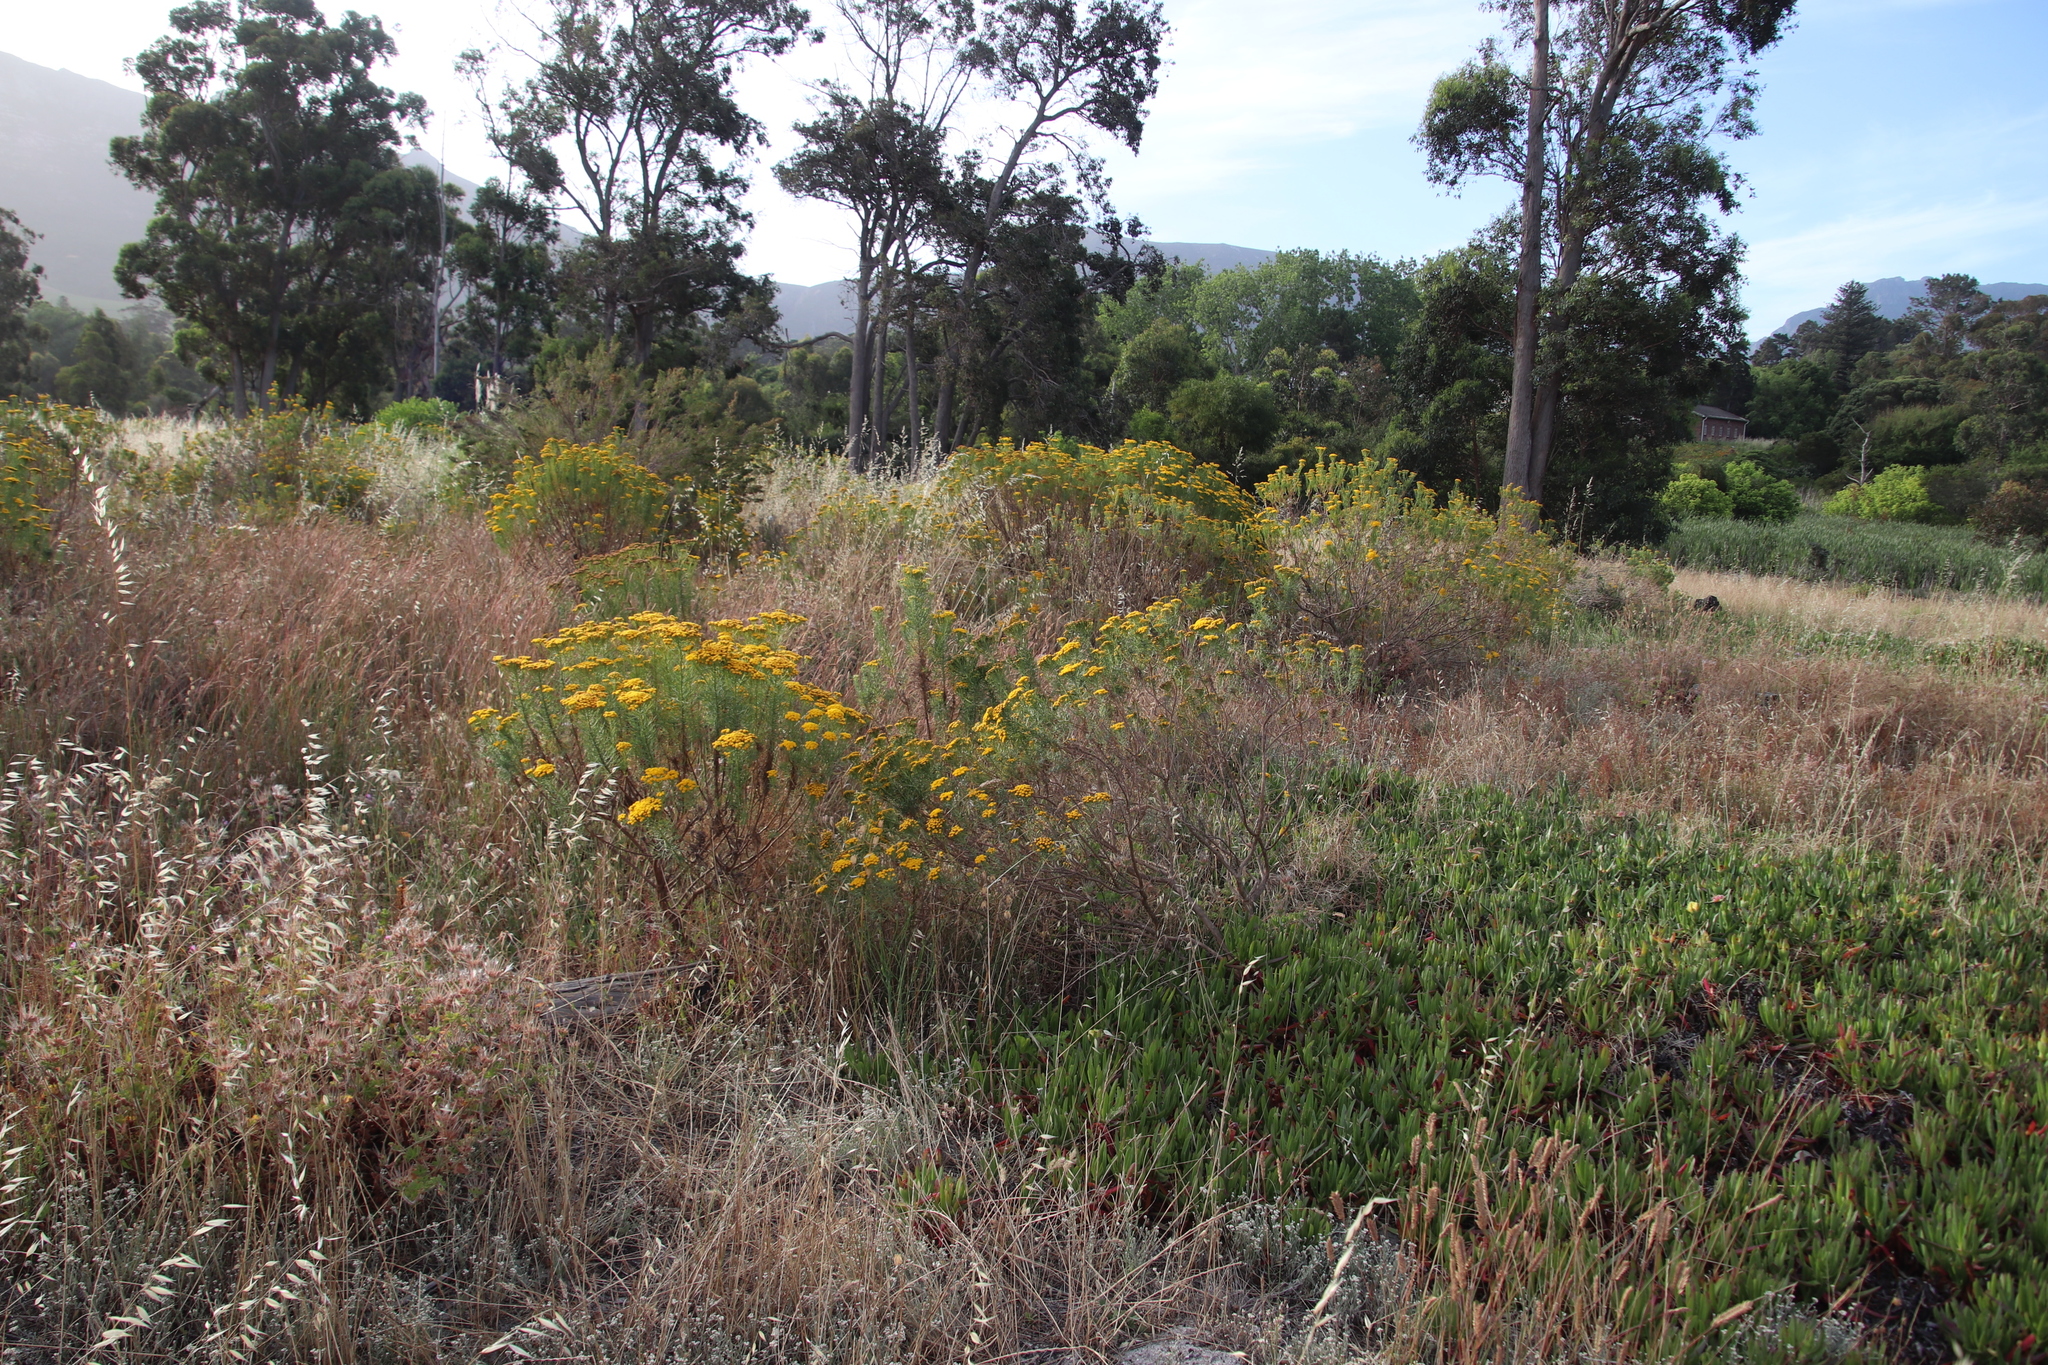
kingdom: Plantae
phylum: Tracheophyta
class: Magnoliopsida
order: Asterales
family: Asteraceae
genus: Athanasia
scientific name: Athanasia crithmifolia
